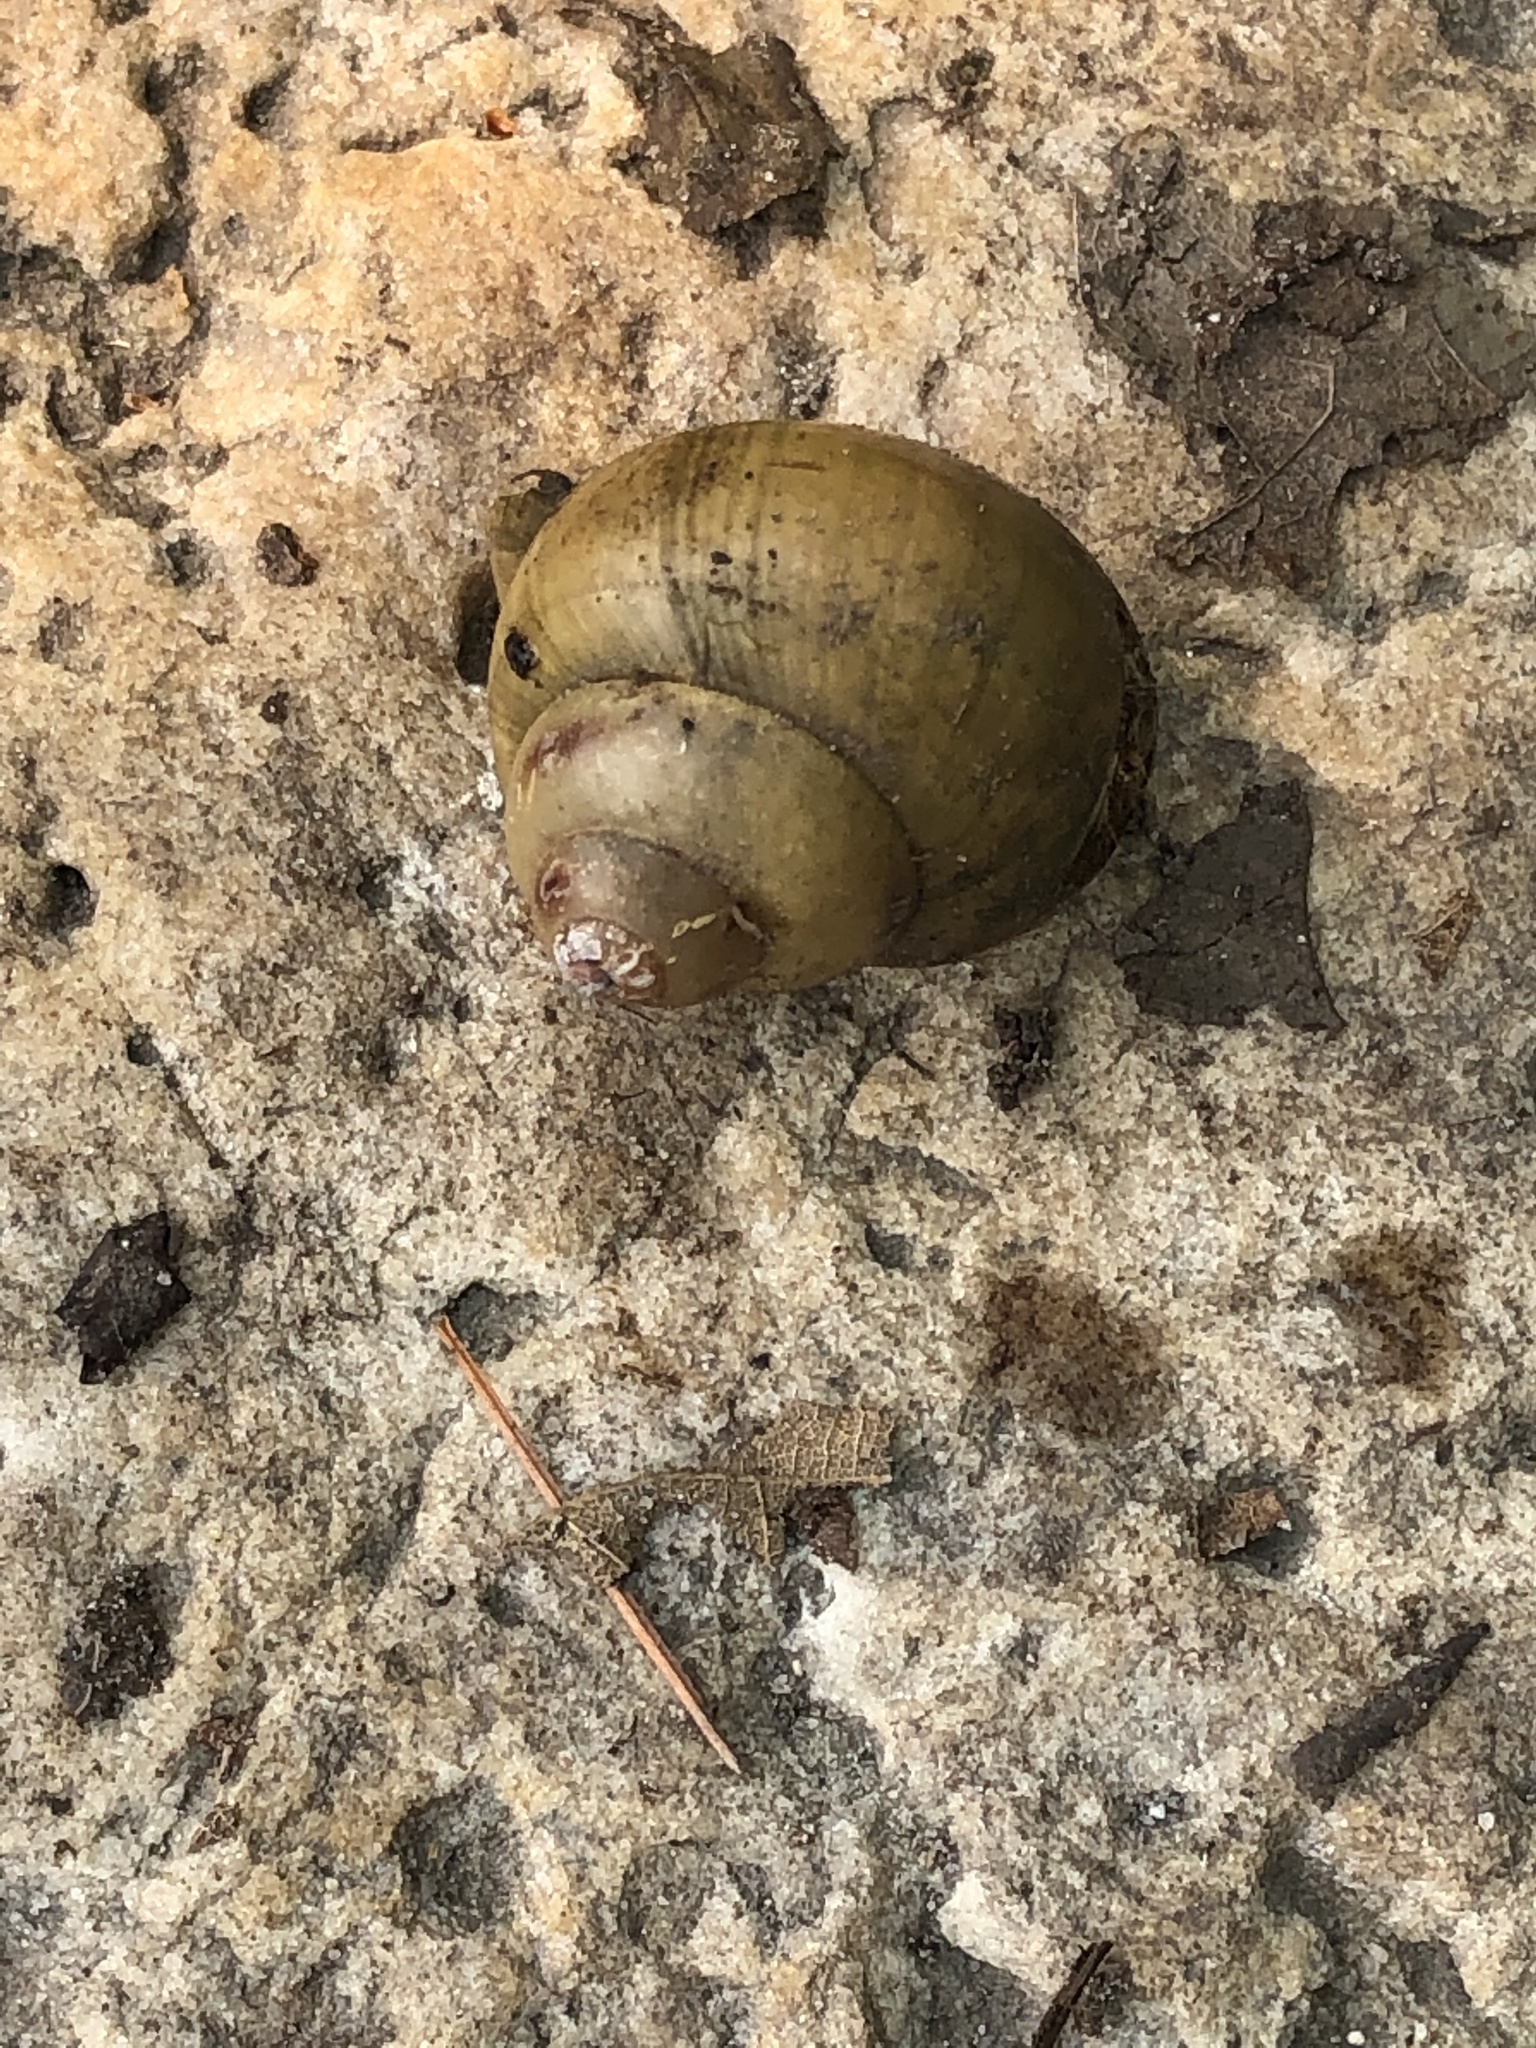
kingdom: Animalia
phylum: Mollusca
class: Gastropoda
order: Architaenioglossa
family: Viviparidae
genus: Cipangopaludina
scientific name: Cipangopaludina chinensis
